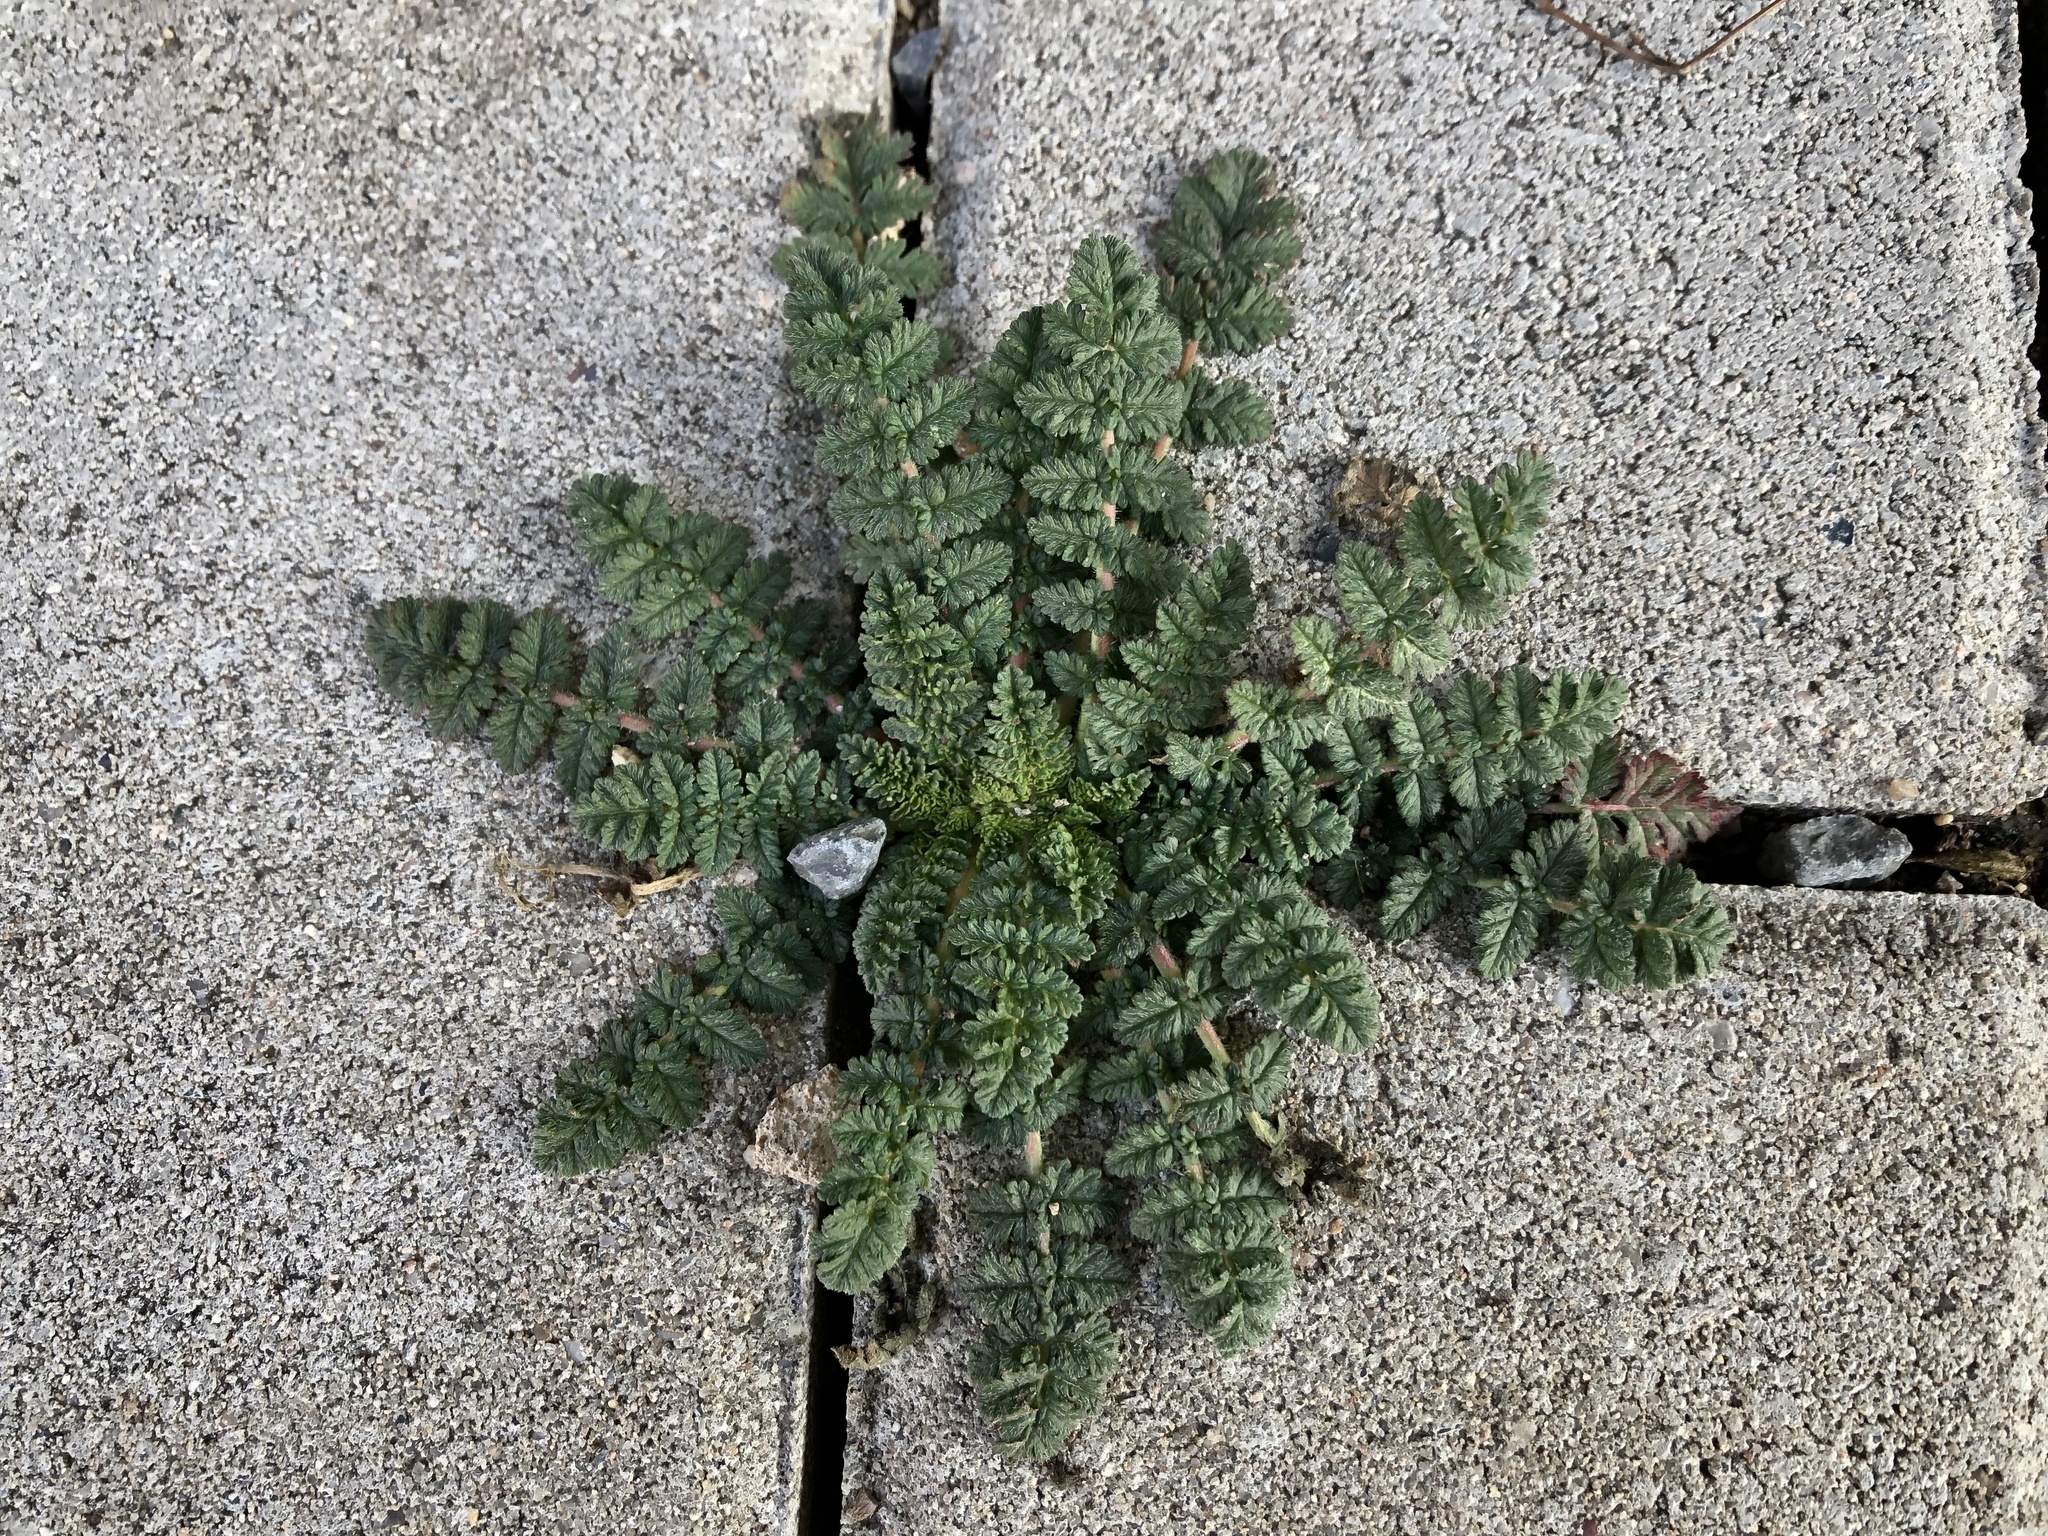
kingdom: Plantae
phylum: Tracheophyta
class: Magnoliopsida
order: Geraniales
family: Geraniaceae
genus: Erodium
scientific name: Erodium cicutarium
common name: Common stork's-bill
